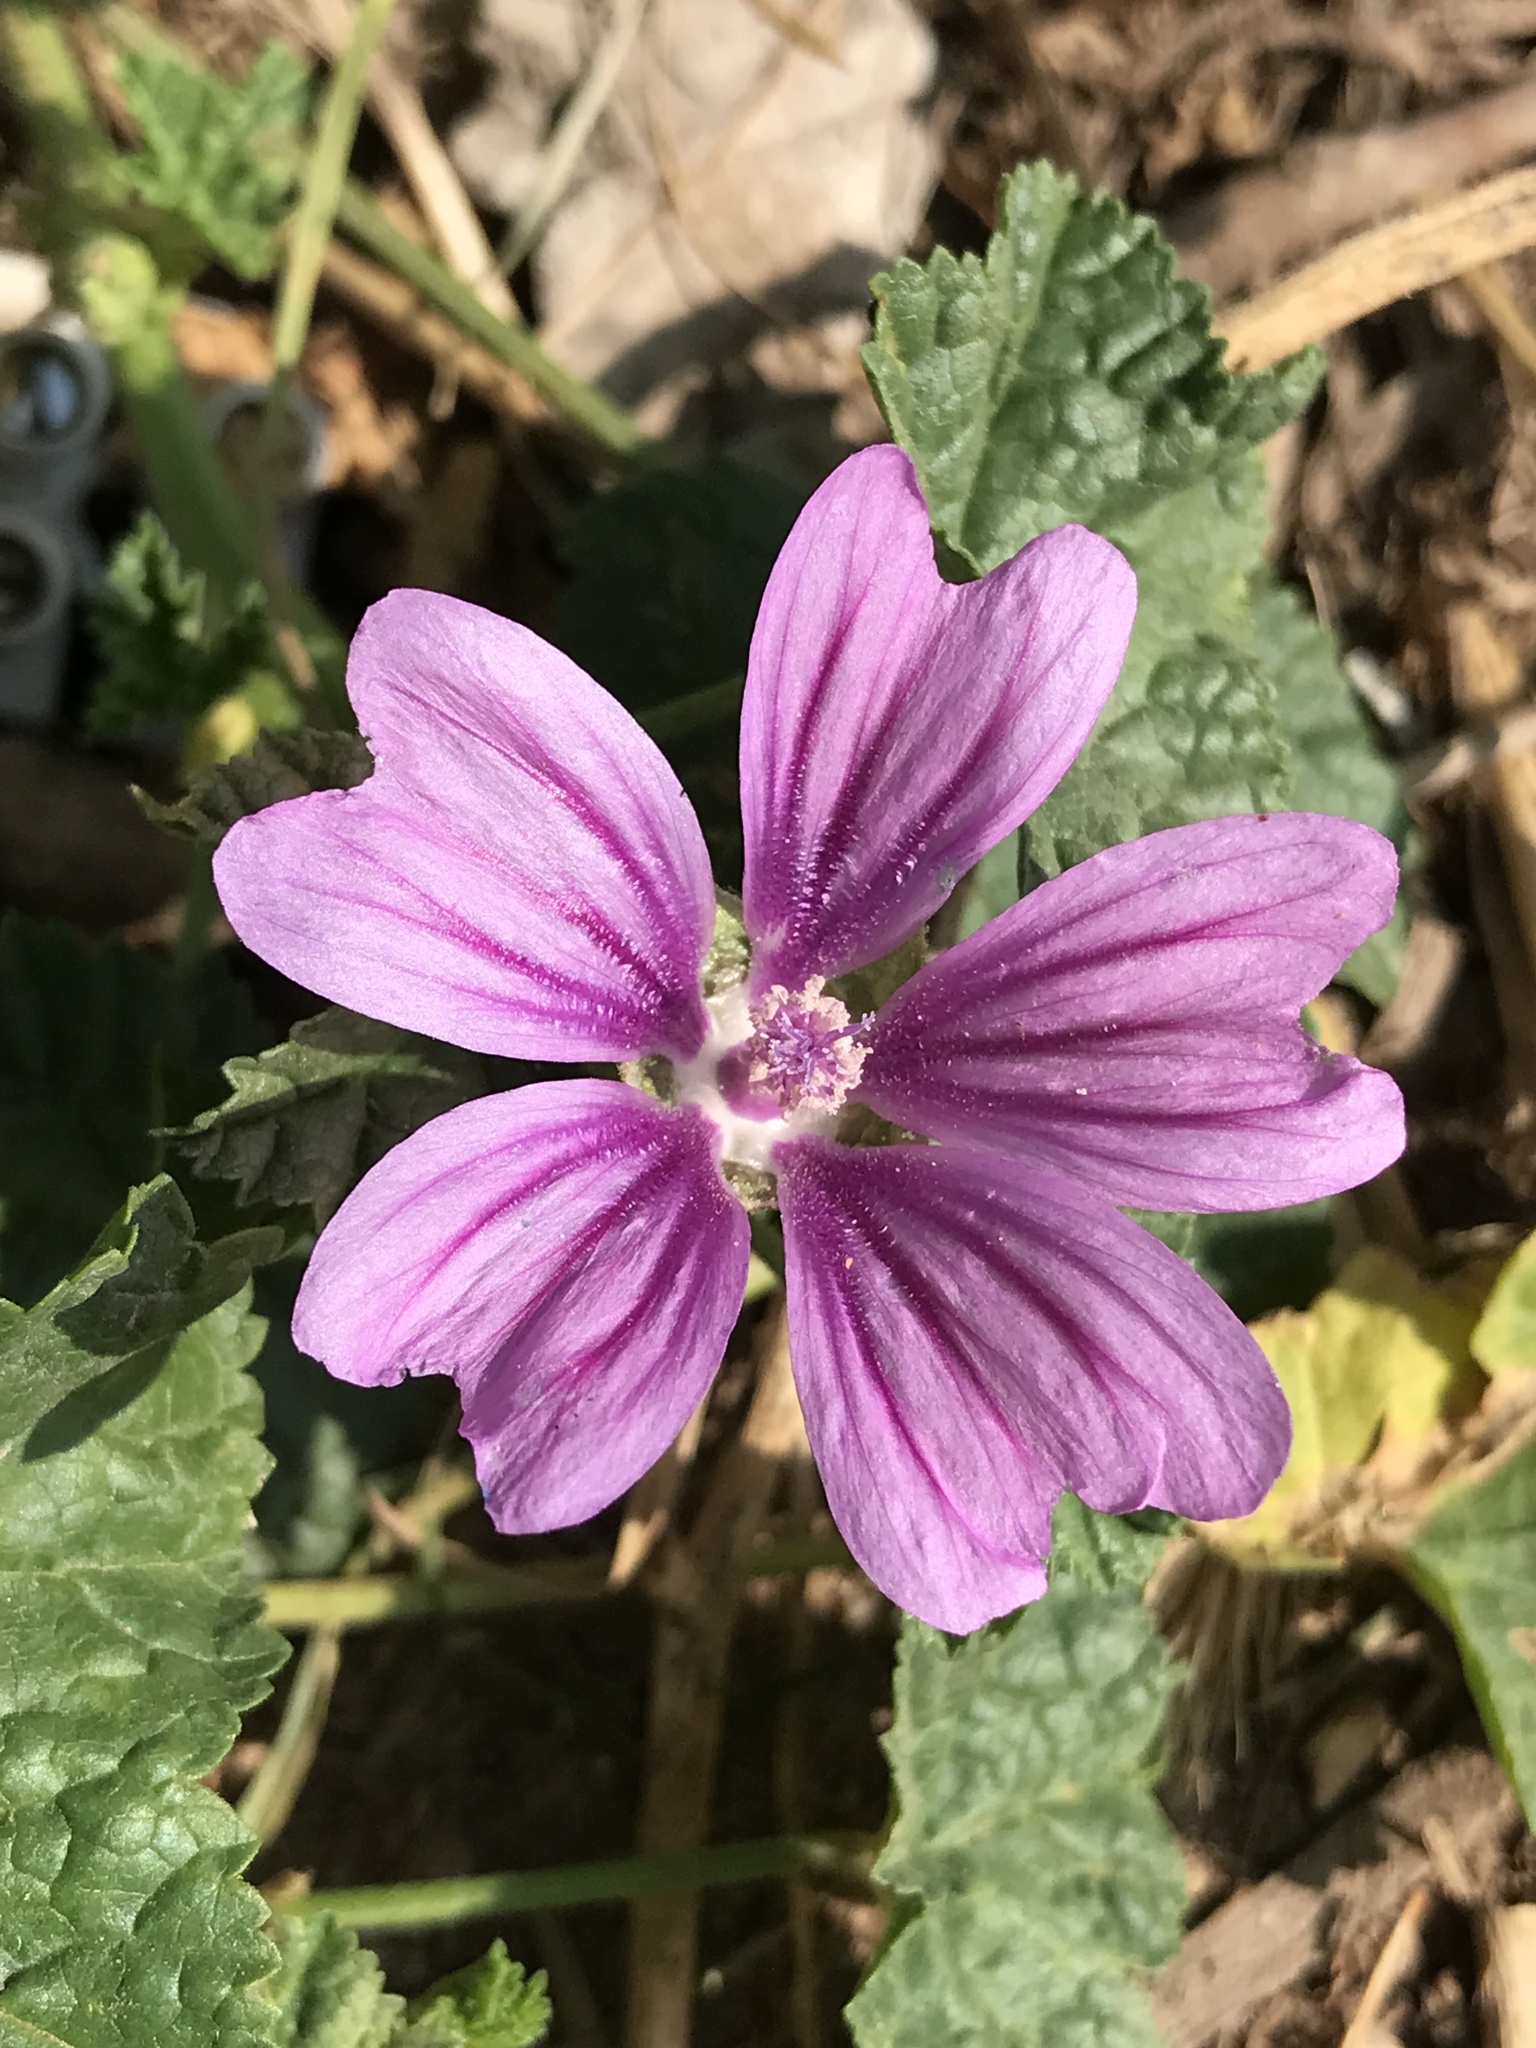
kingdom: Plantae
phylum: Tracheophyta
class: Magnoliopsida
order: Malvales
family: Malvaceae
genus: Malva
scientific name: Malva sylvestris
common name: Common mallow
